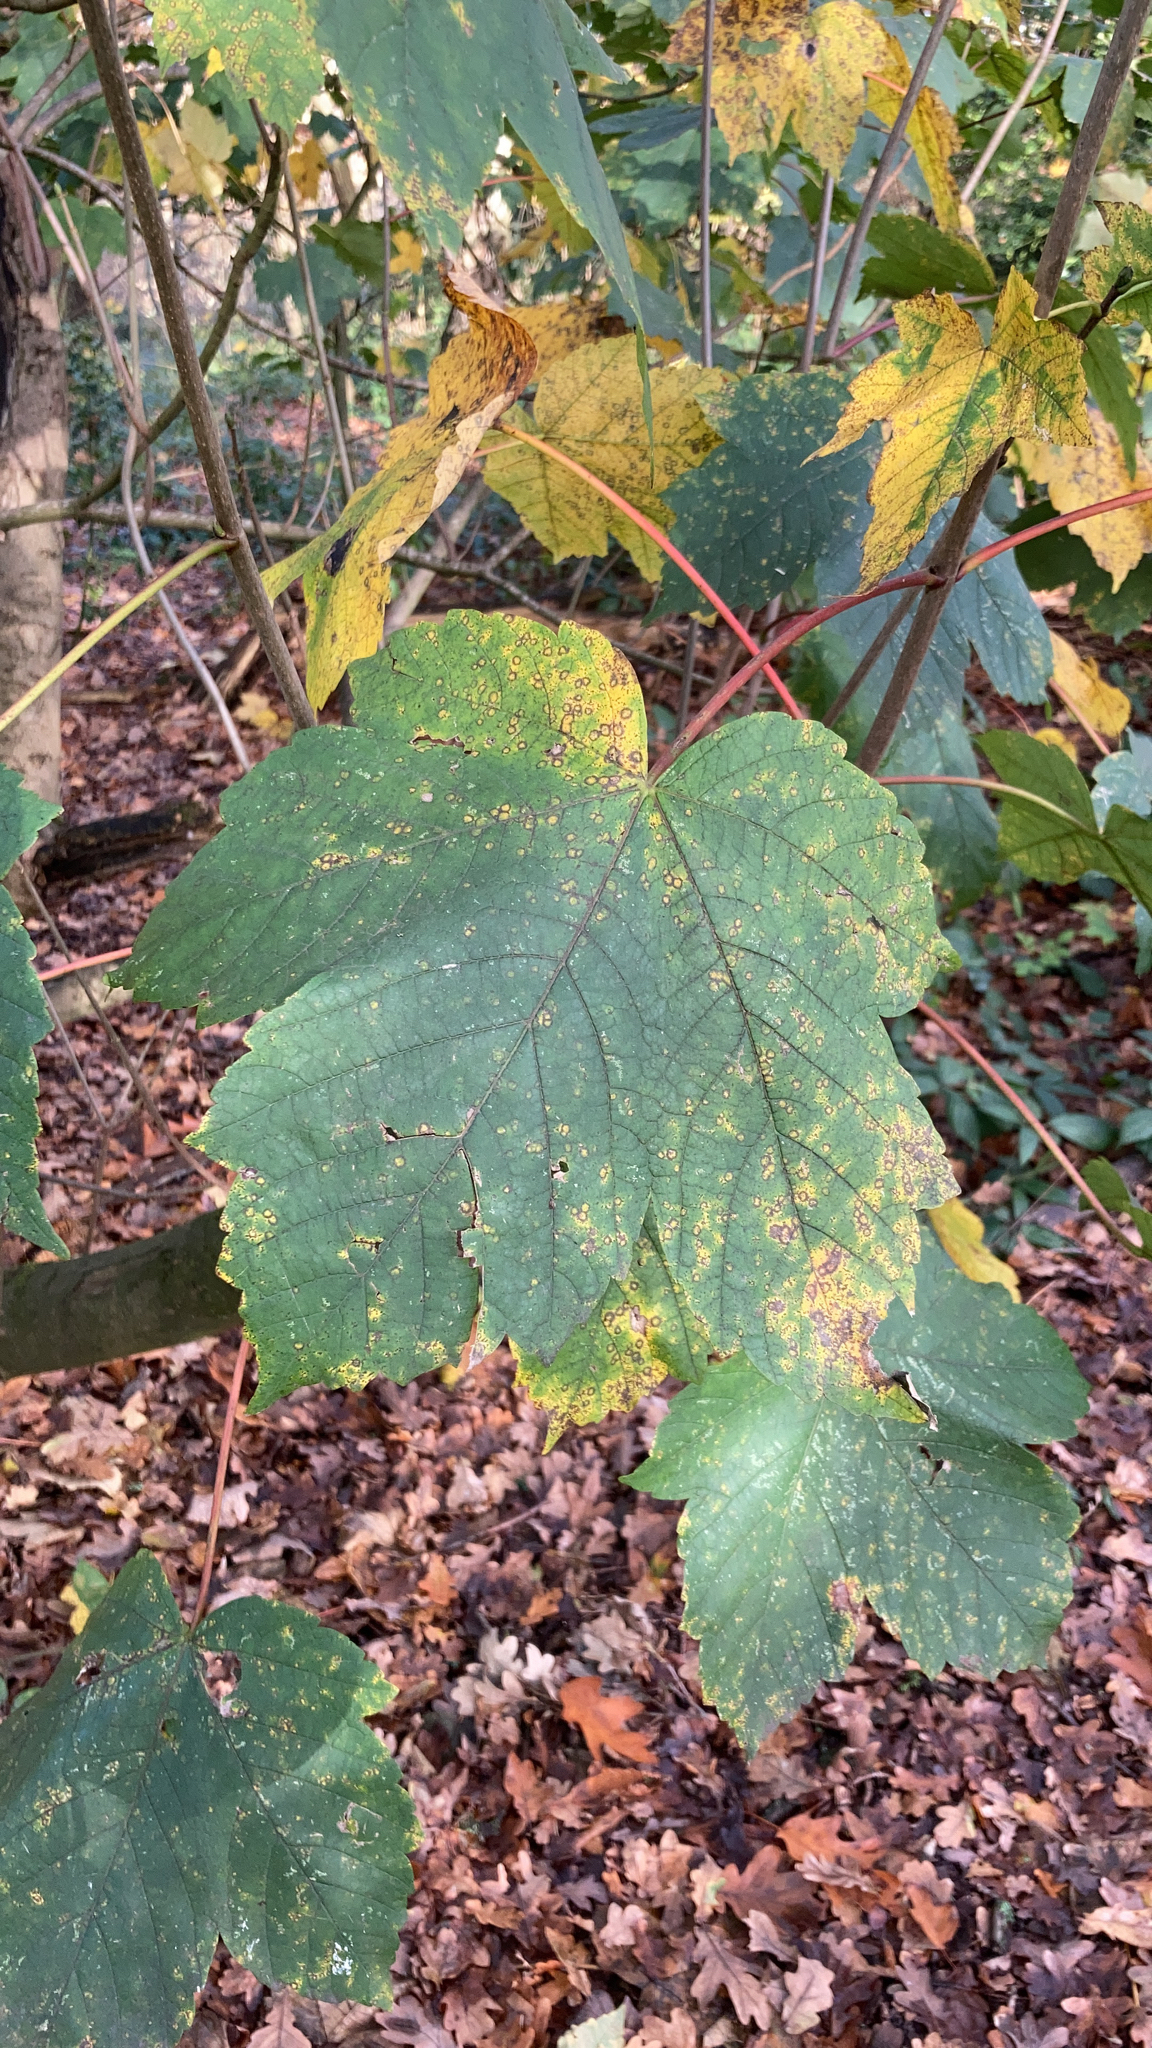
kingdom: Plantae
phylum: Tracheophyta
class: Magnoliopsida
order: Sapindales
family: Sapindaceae
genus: Acer
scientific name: Acer pseudoplatanus
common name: Sycamore
